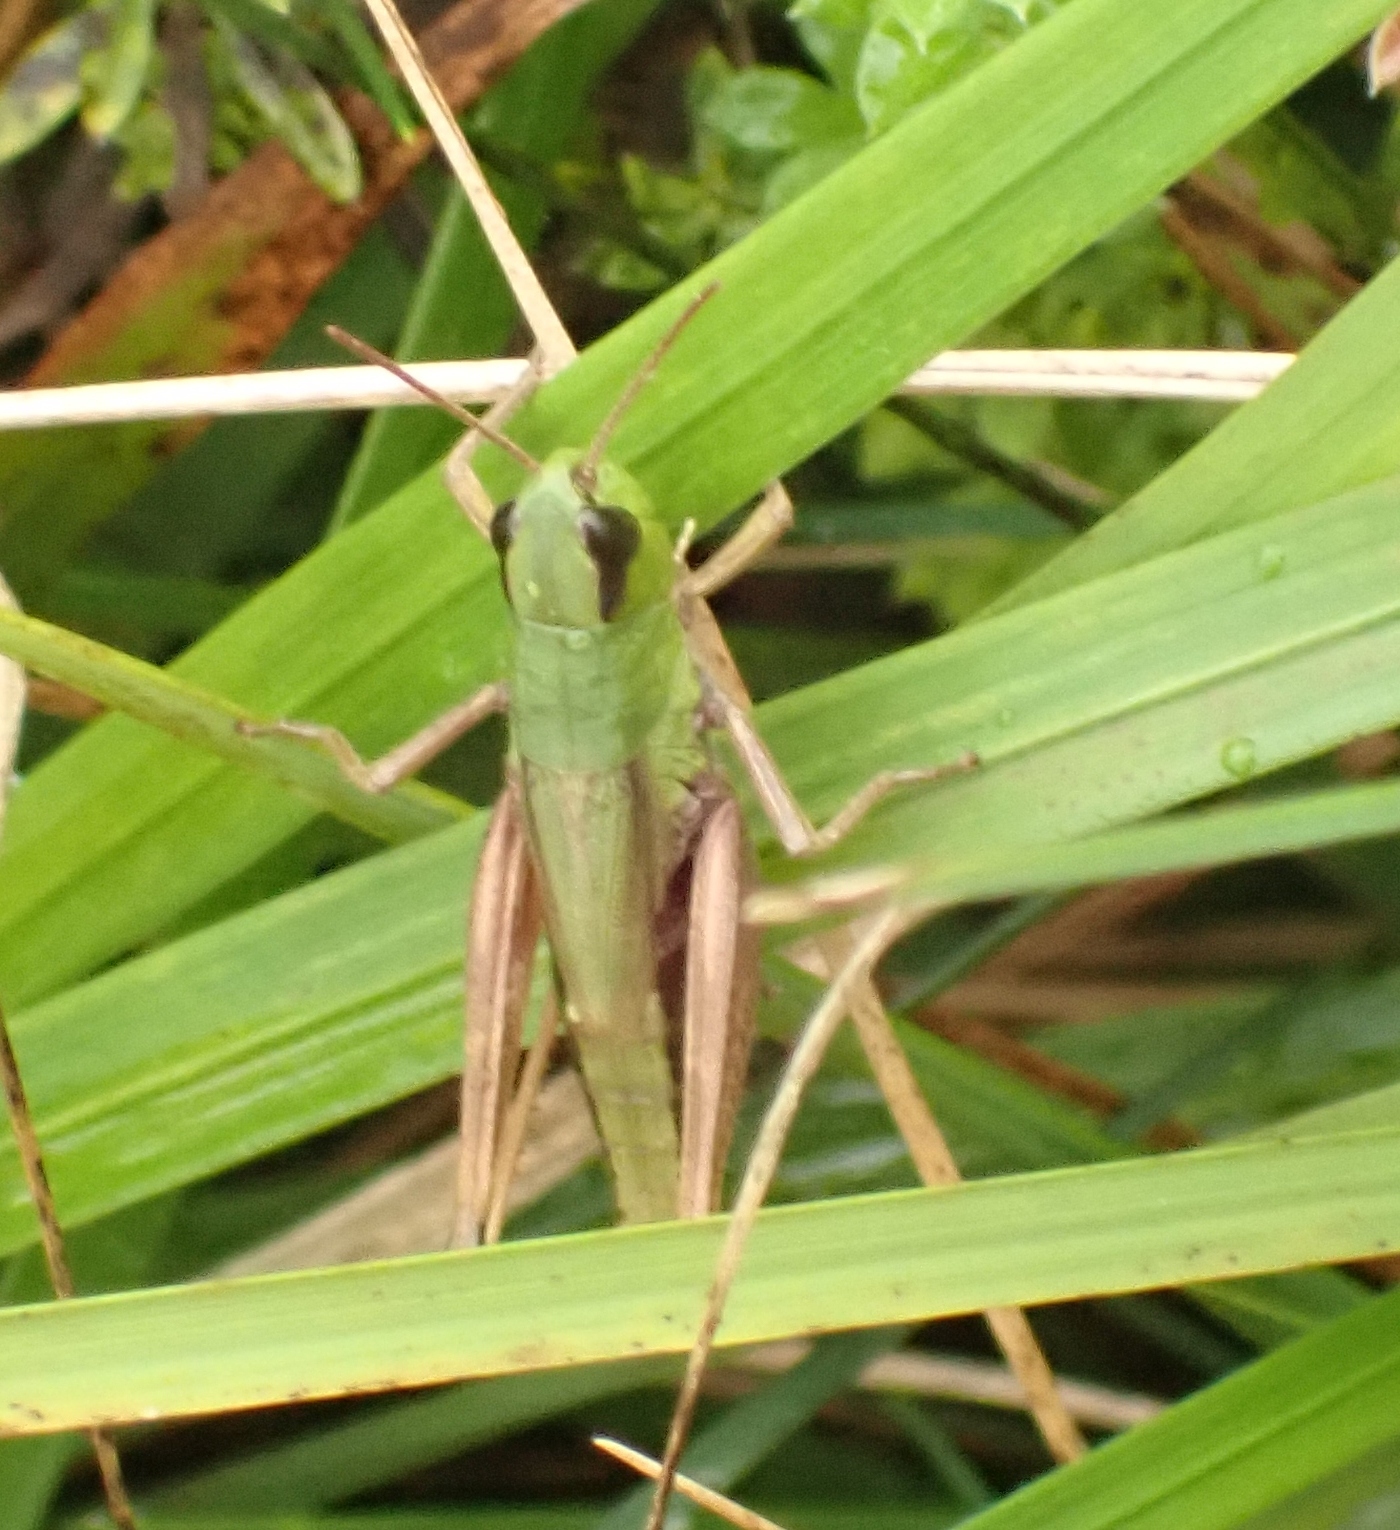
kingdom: Animalia
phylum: Arthropoda
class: Insecta
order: Orthoptera
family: Acrididae
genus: Pseudochorthippus
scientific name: Pseudochorthippus parallelus
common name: Meadow grasshopper
